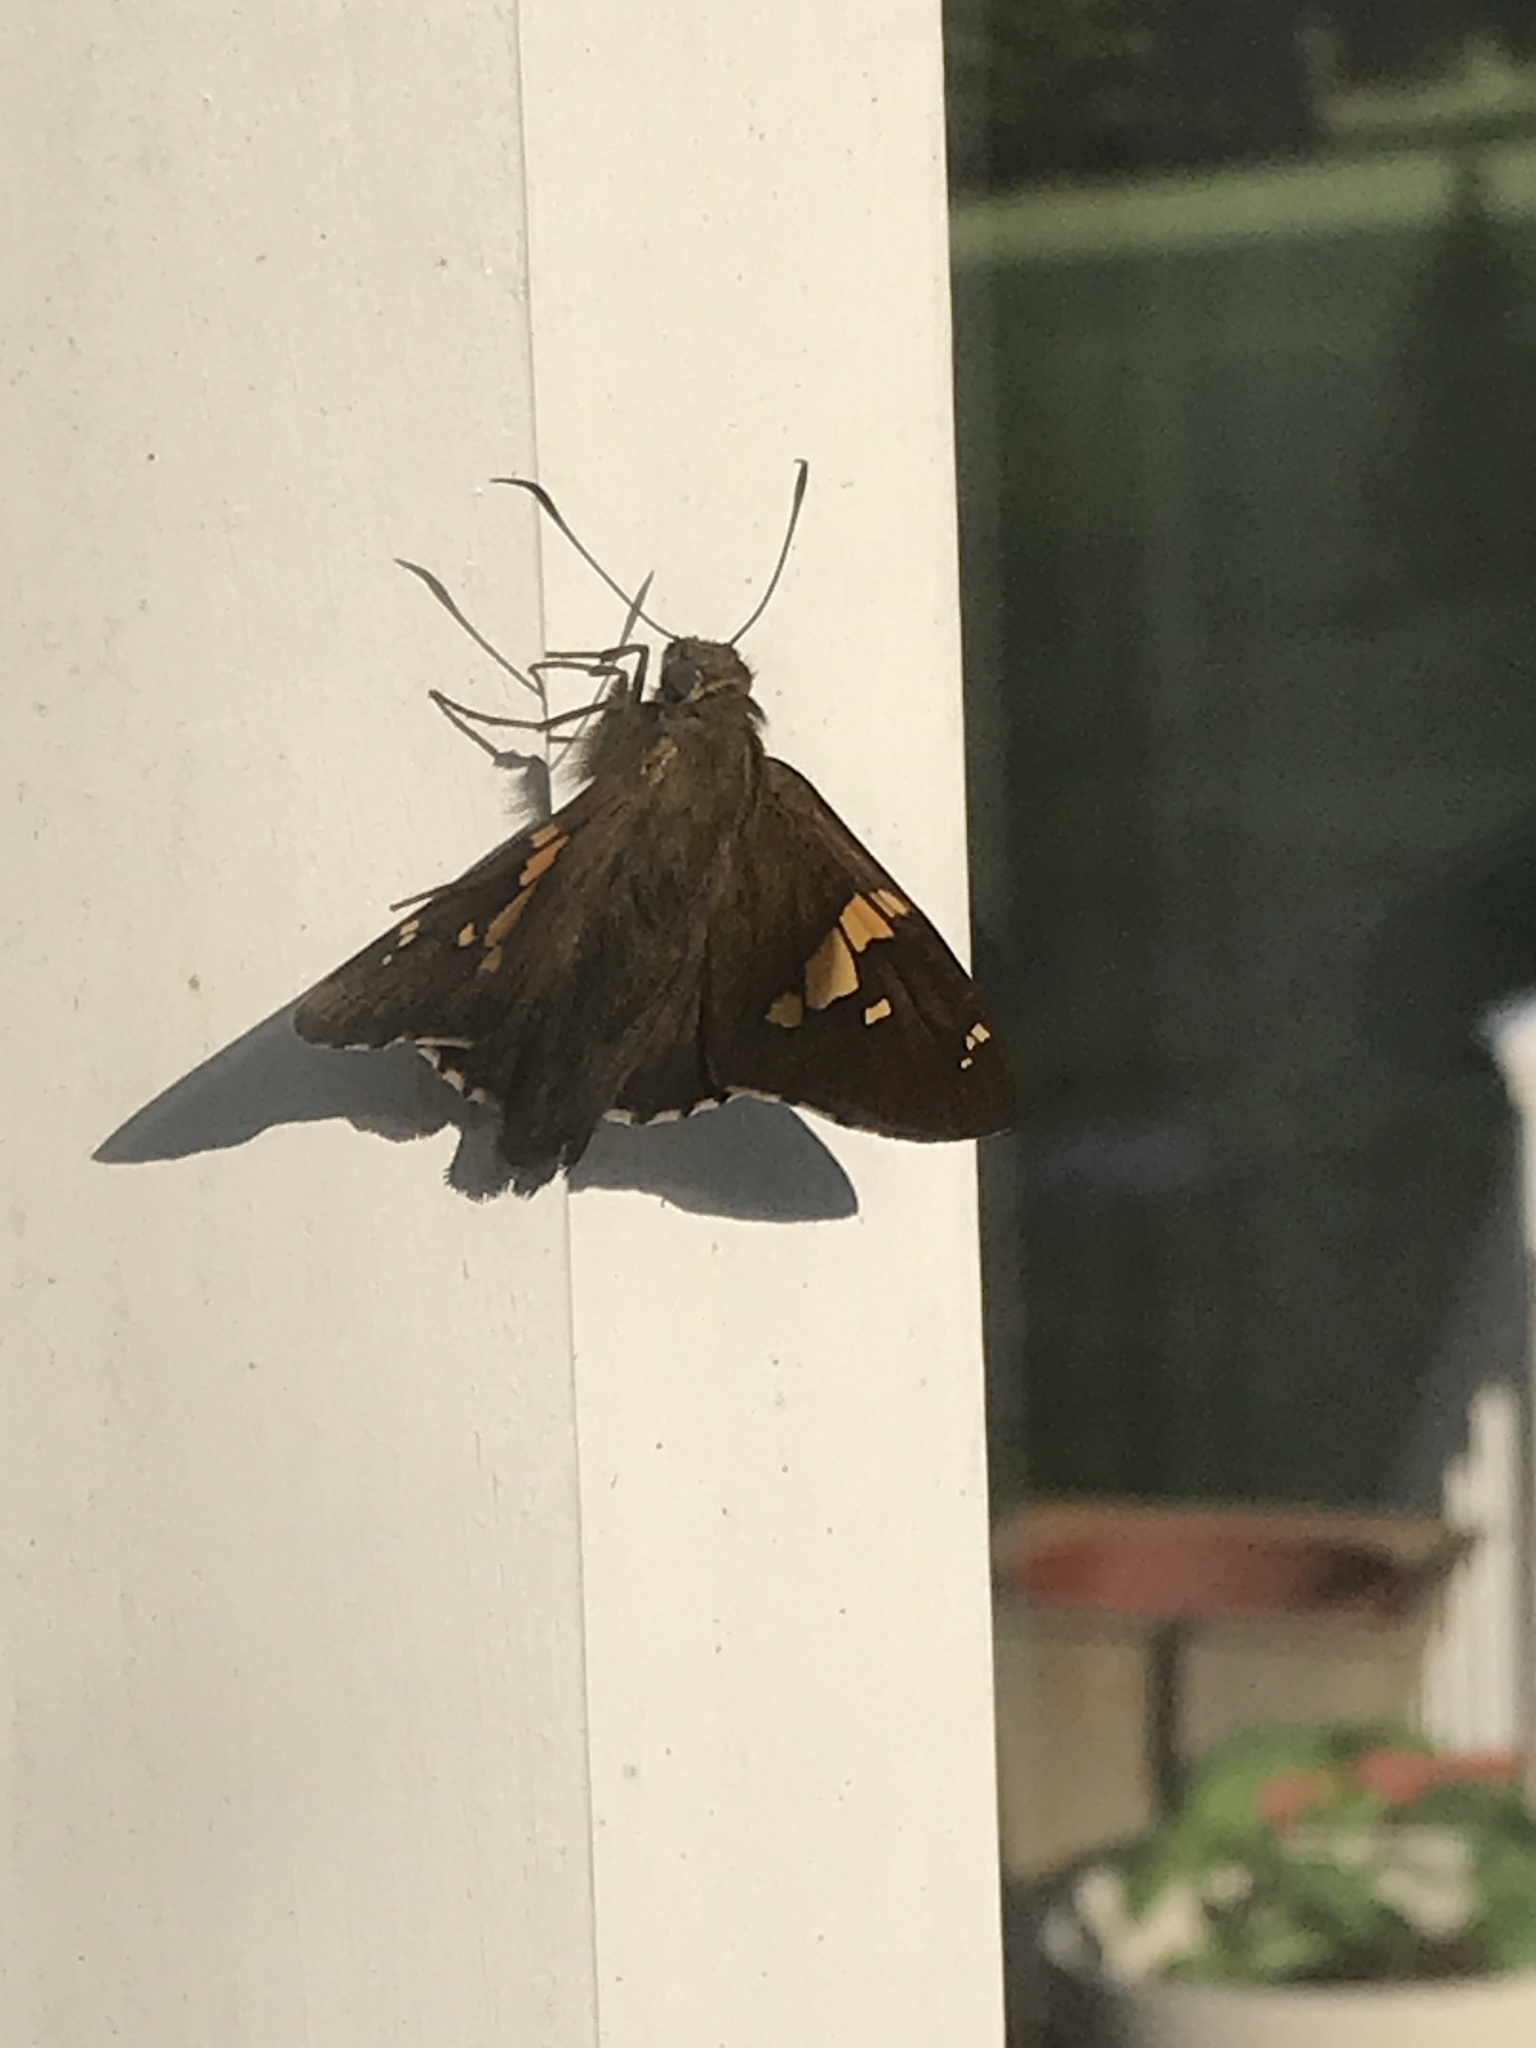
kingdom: Animalia
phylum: Arthropoda
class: Insecta
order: Lepidoptera
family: Hesperiidae
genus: Epargyreus
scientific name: Epargyreus clarus
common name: Silver-spotted skipper
